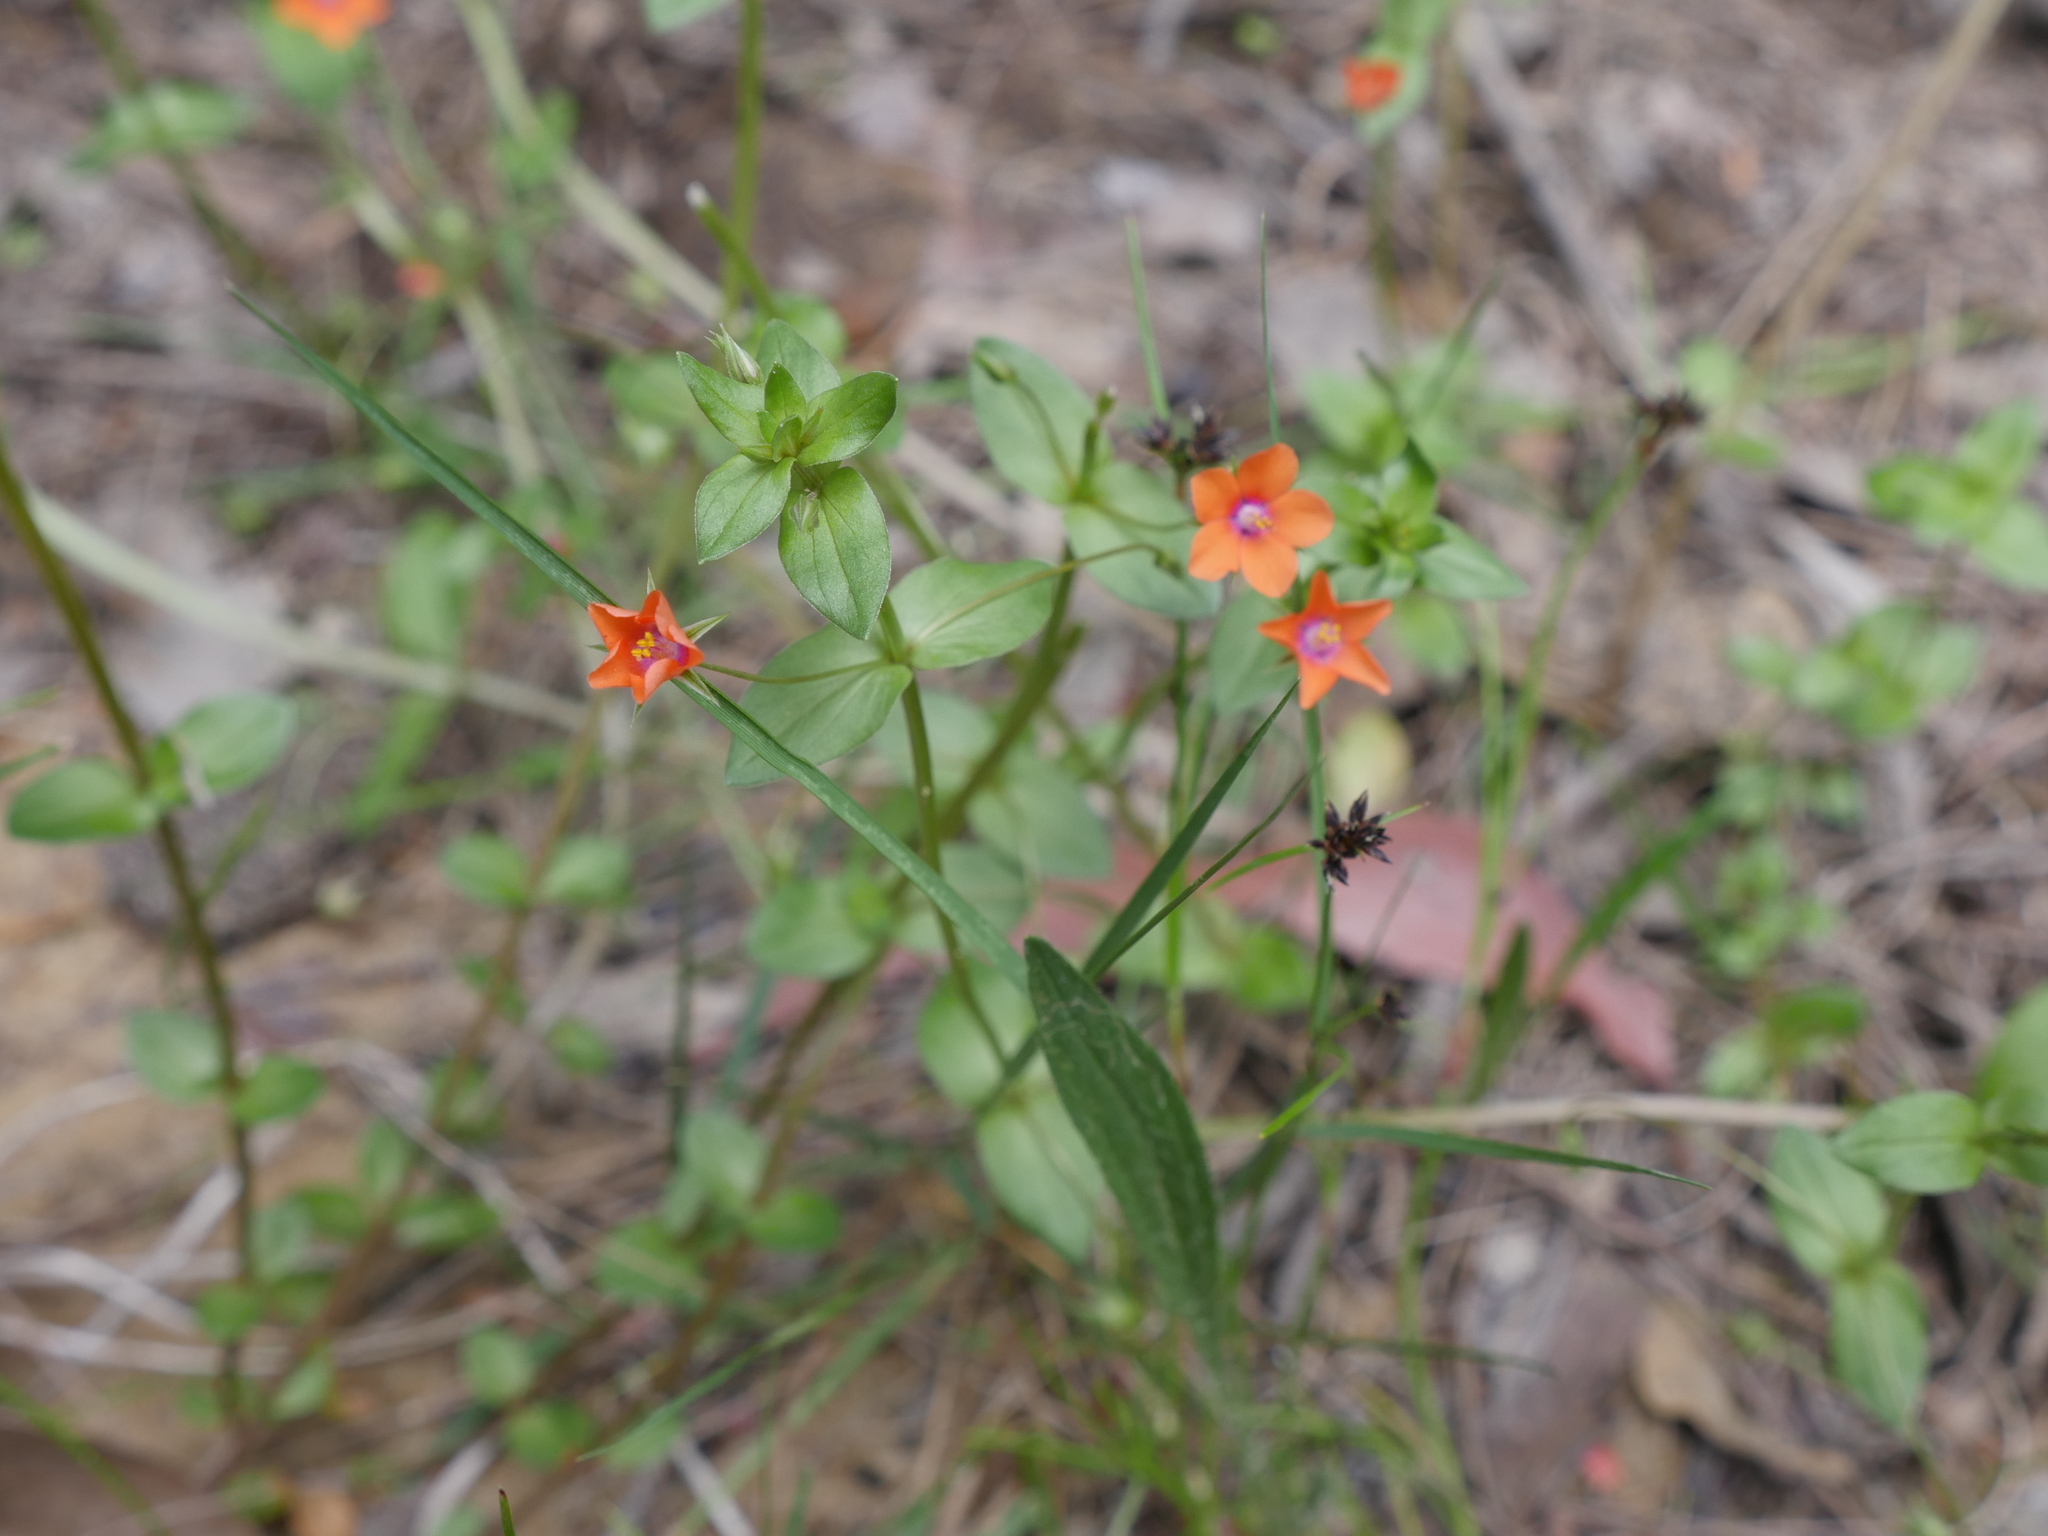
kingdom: Plantae
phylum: Tracheophyta
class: Magnoliopsida
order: Ericales
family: Primulaceae
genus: Lysimachia
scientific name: Lysimachia arvensis
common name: Scarlet pimpernel
